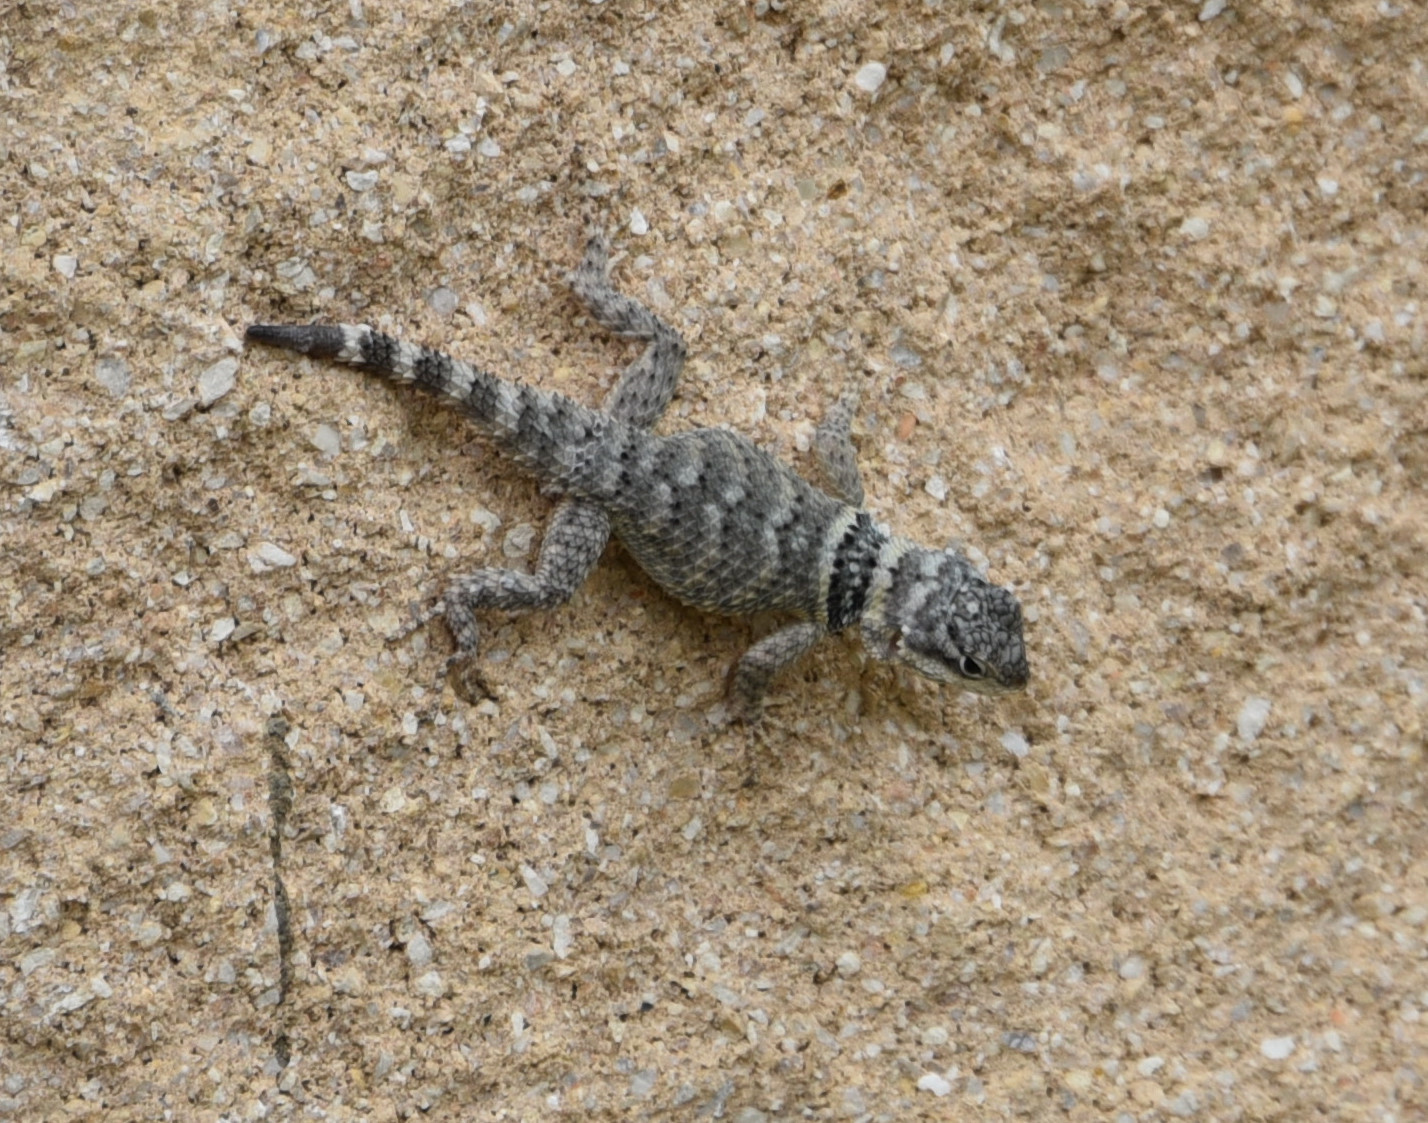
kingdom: Animalia
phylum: Chordata
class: Squamata
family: Phrynosomatidae
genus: Sceloporus
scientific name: Sceloporus poinsettii
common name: Crevice spiny lizard
